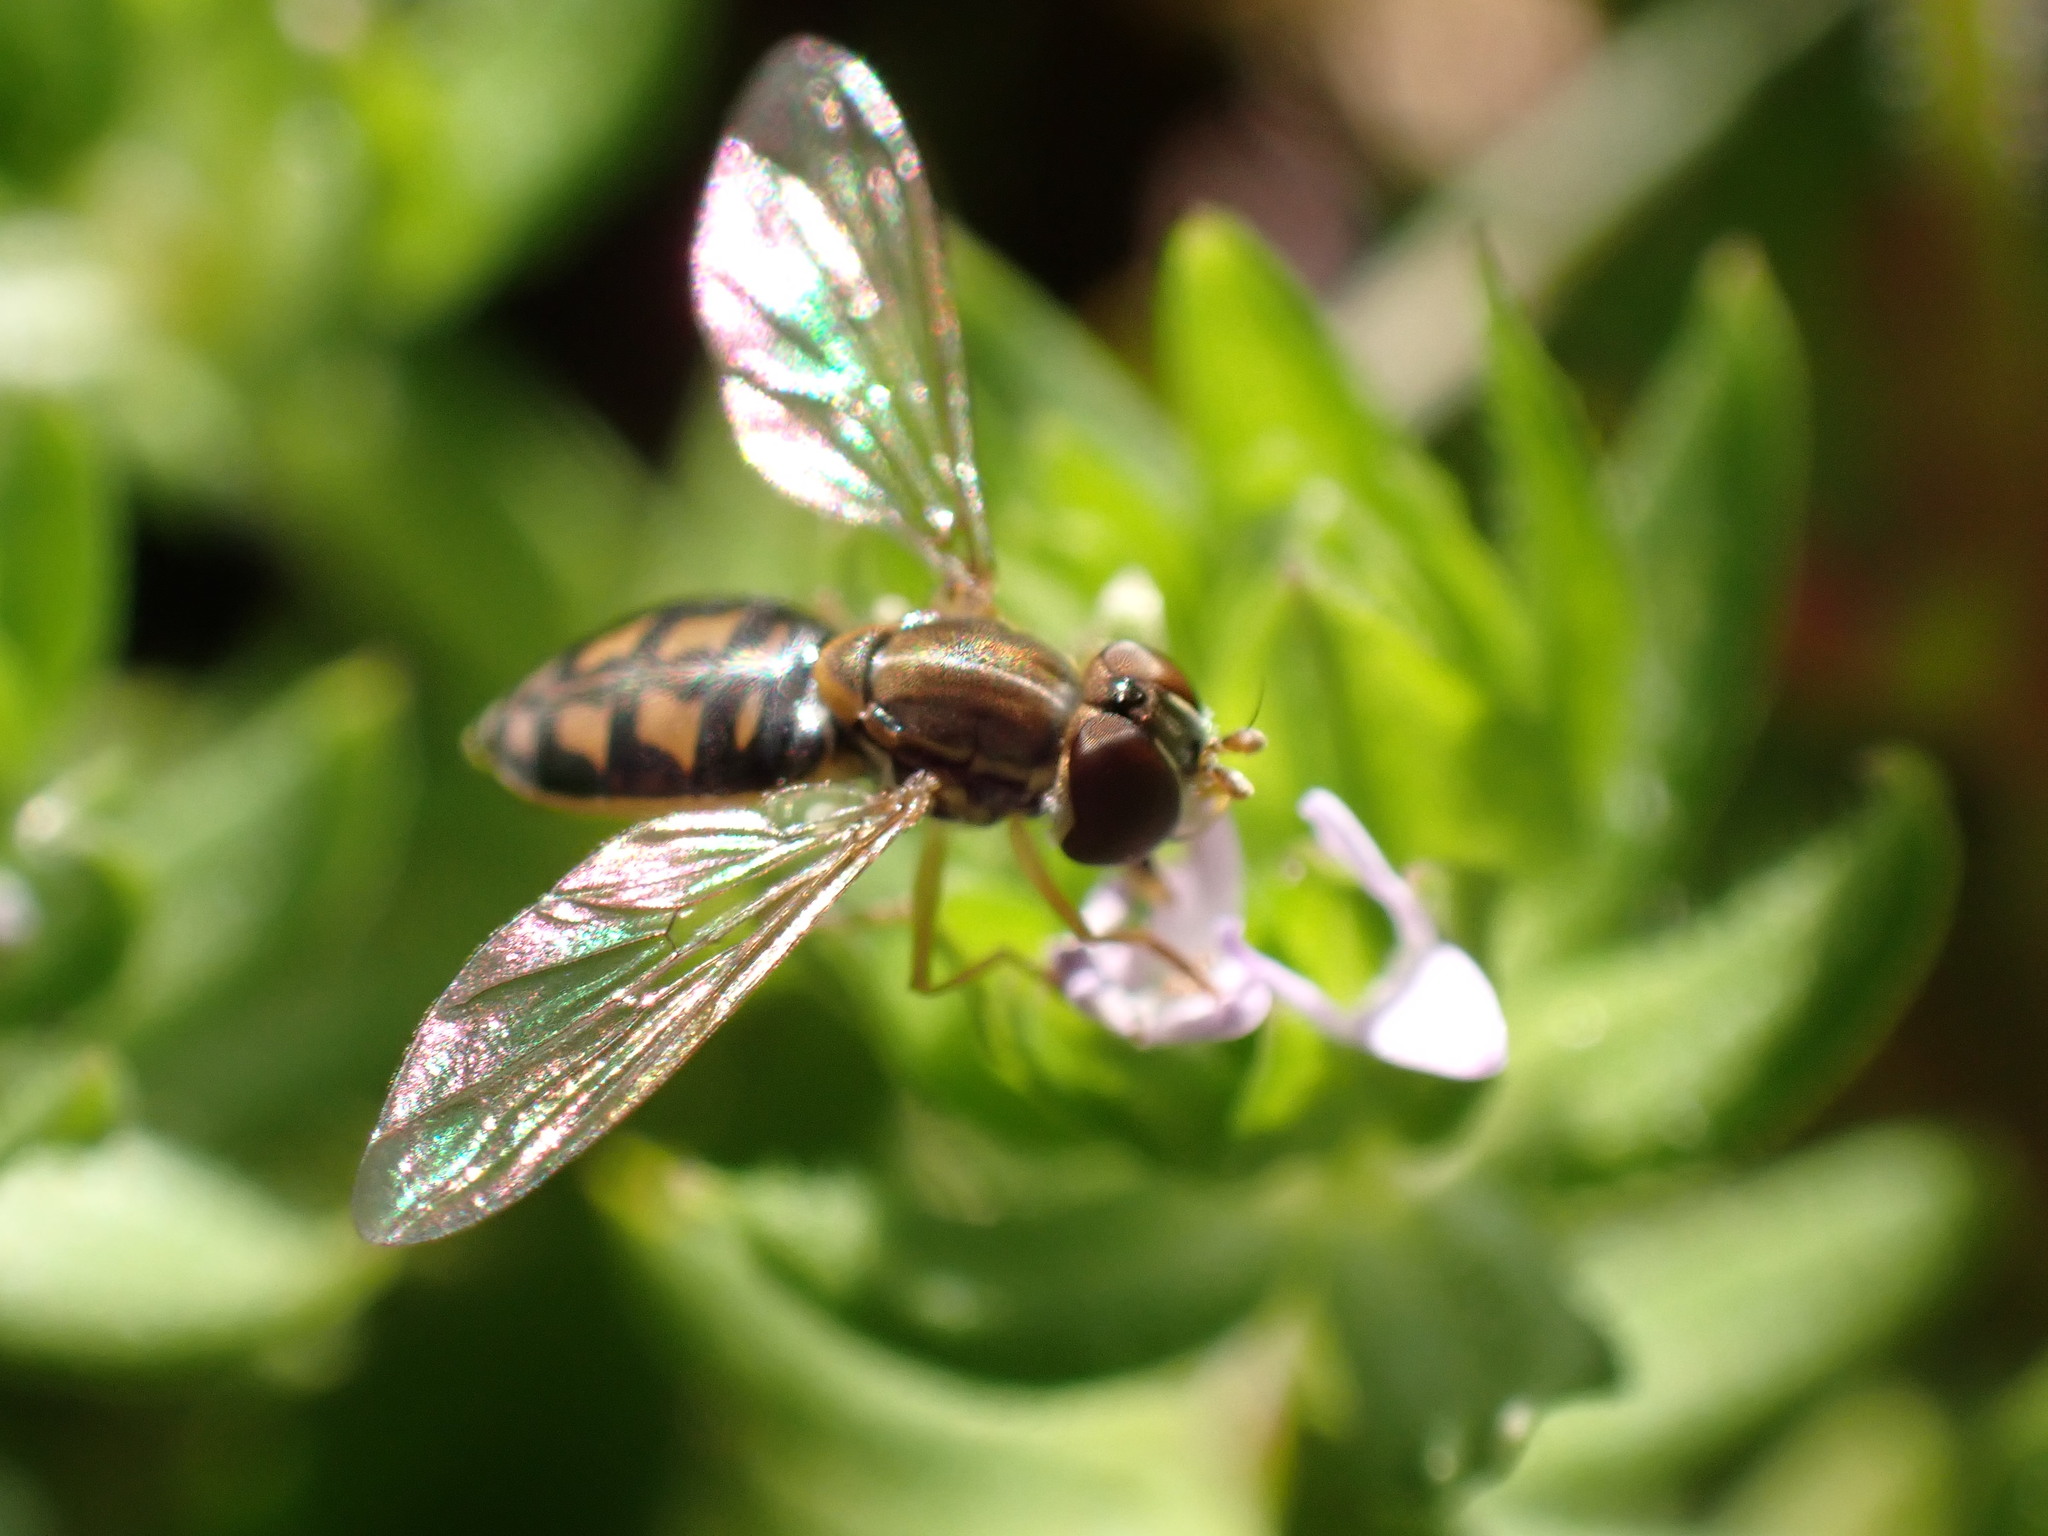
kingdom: Animalia
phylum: Arthropoda
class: Insecta
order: Diptera
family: Syrphidae
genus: Toxomerus
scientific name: Toxomerus marginatus
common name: Syrphid fly
